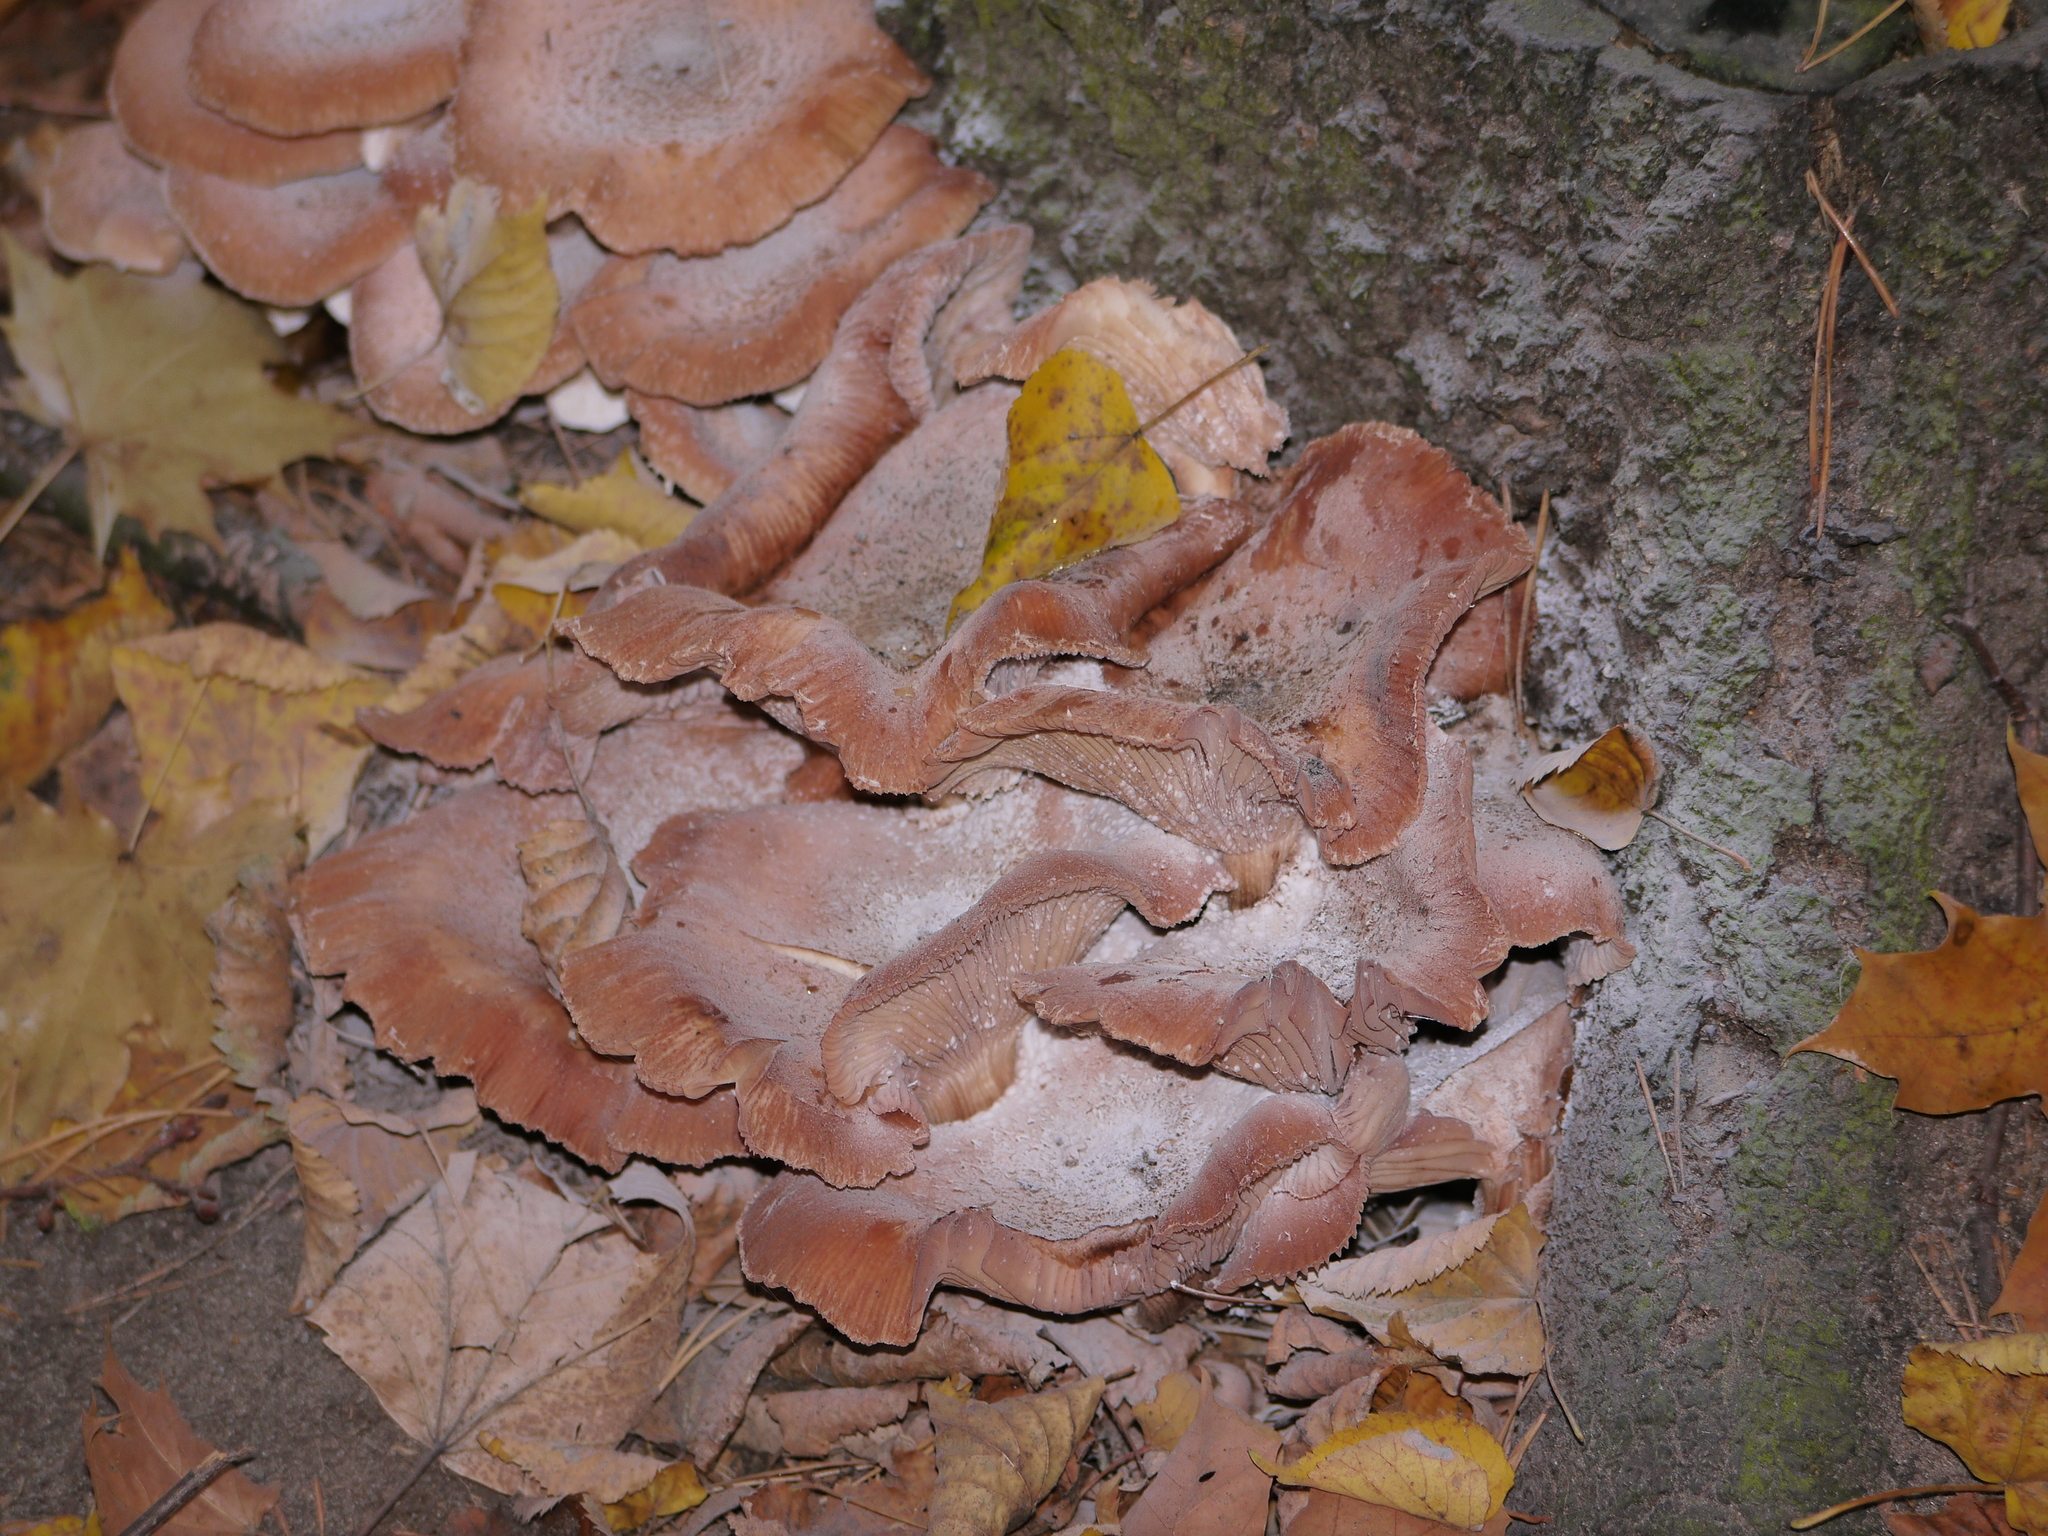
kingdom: Fungi
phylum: Basidiomycota
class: Agaricomycetes
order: Agaricales
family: Physalacriaceae
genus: Armillaria
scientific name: Armillaria mellea
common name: Honey fungus
